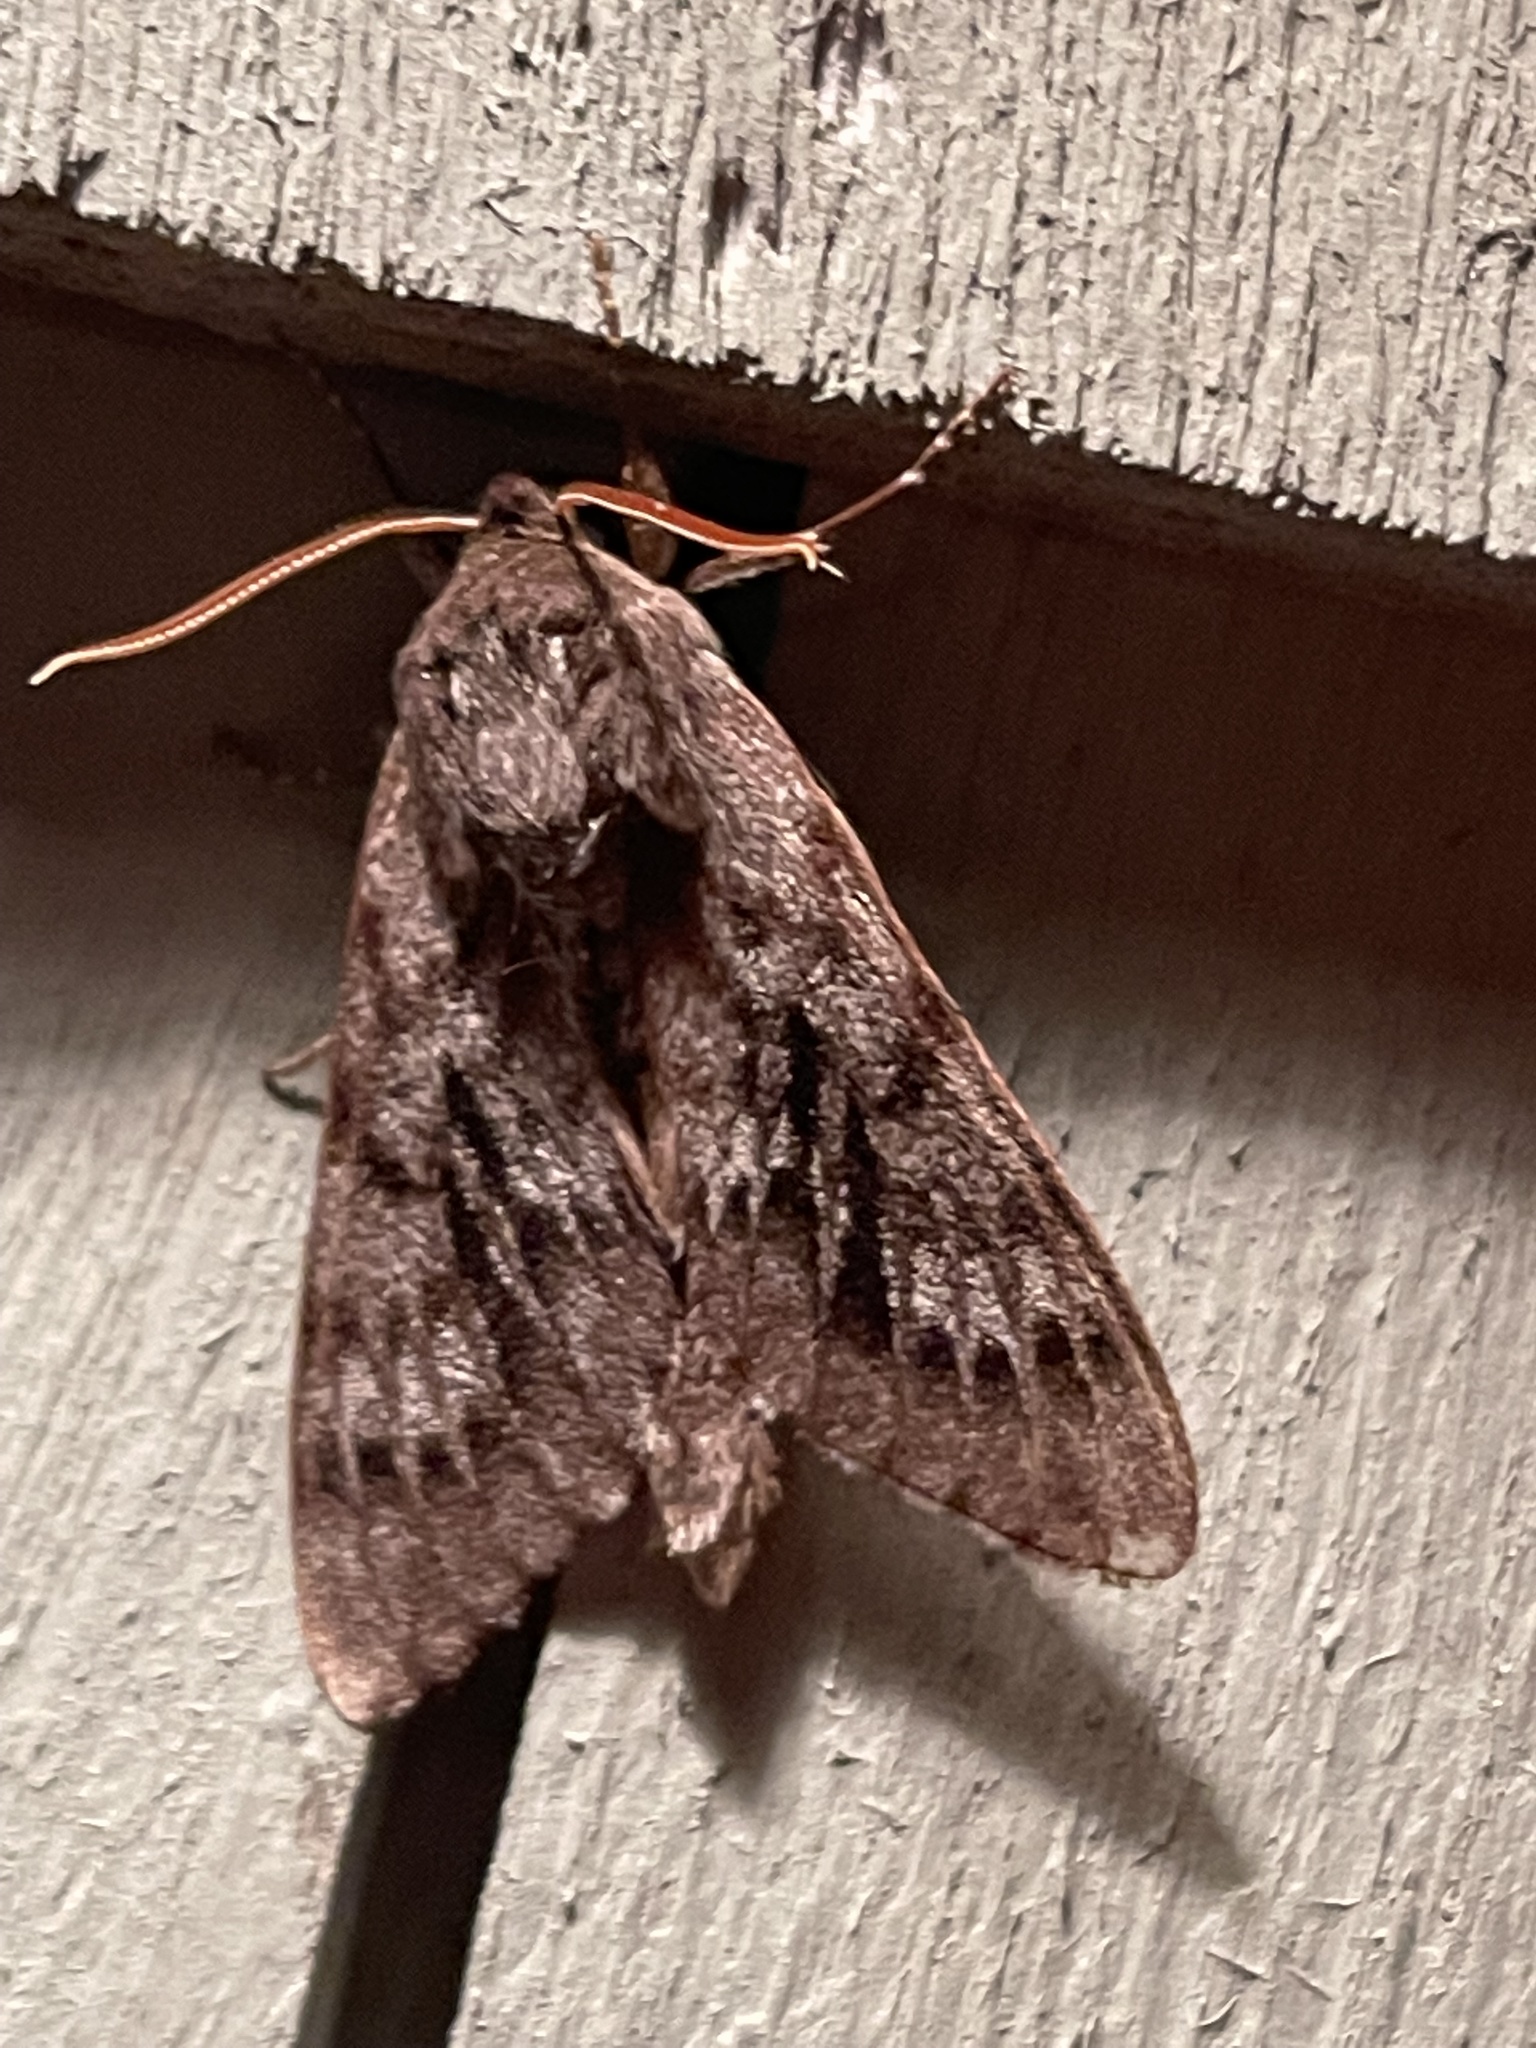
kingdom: Animalia
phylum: Arthropoda
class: Insecta
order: Lepidoptera
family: Sphingidae
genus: Lapara
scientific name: Lapara bombycoides
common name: Northern pine sphinx
